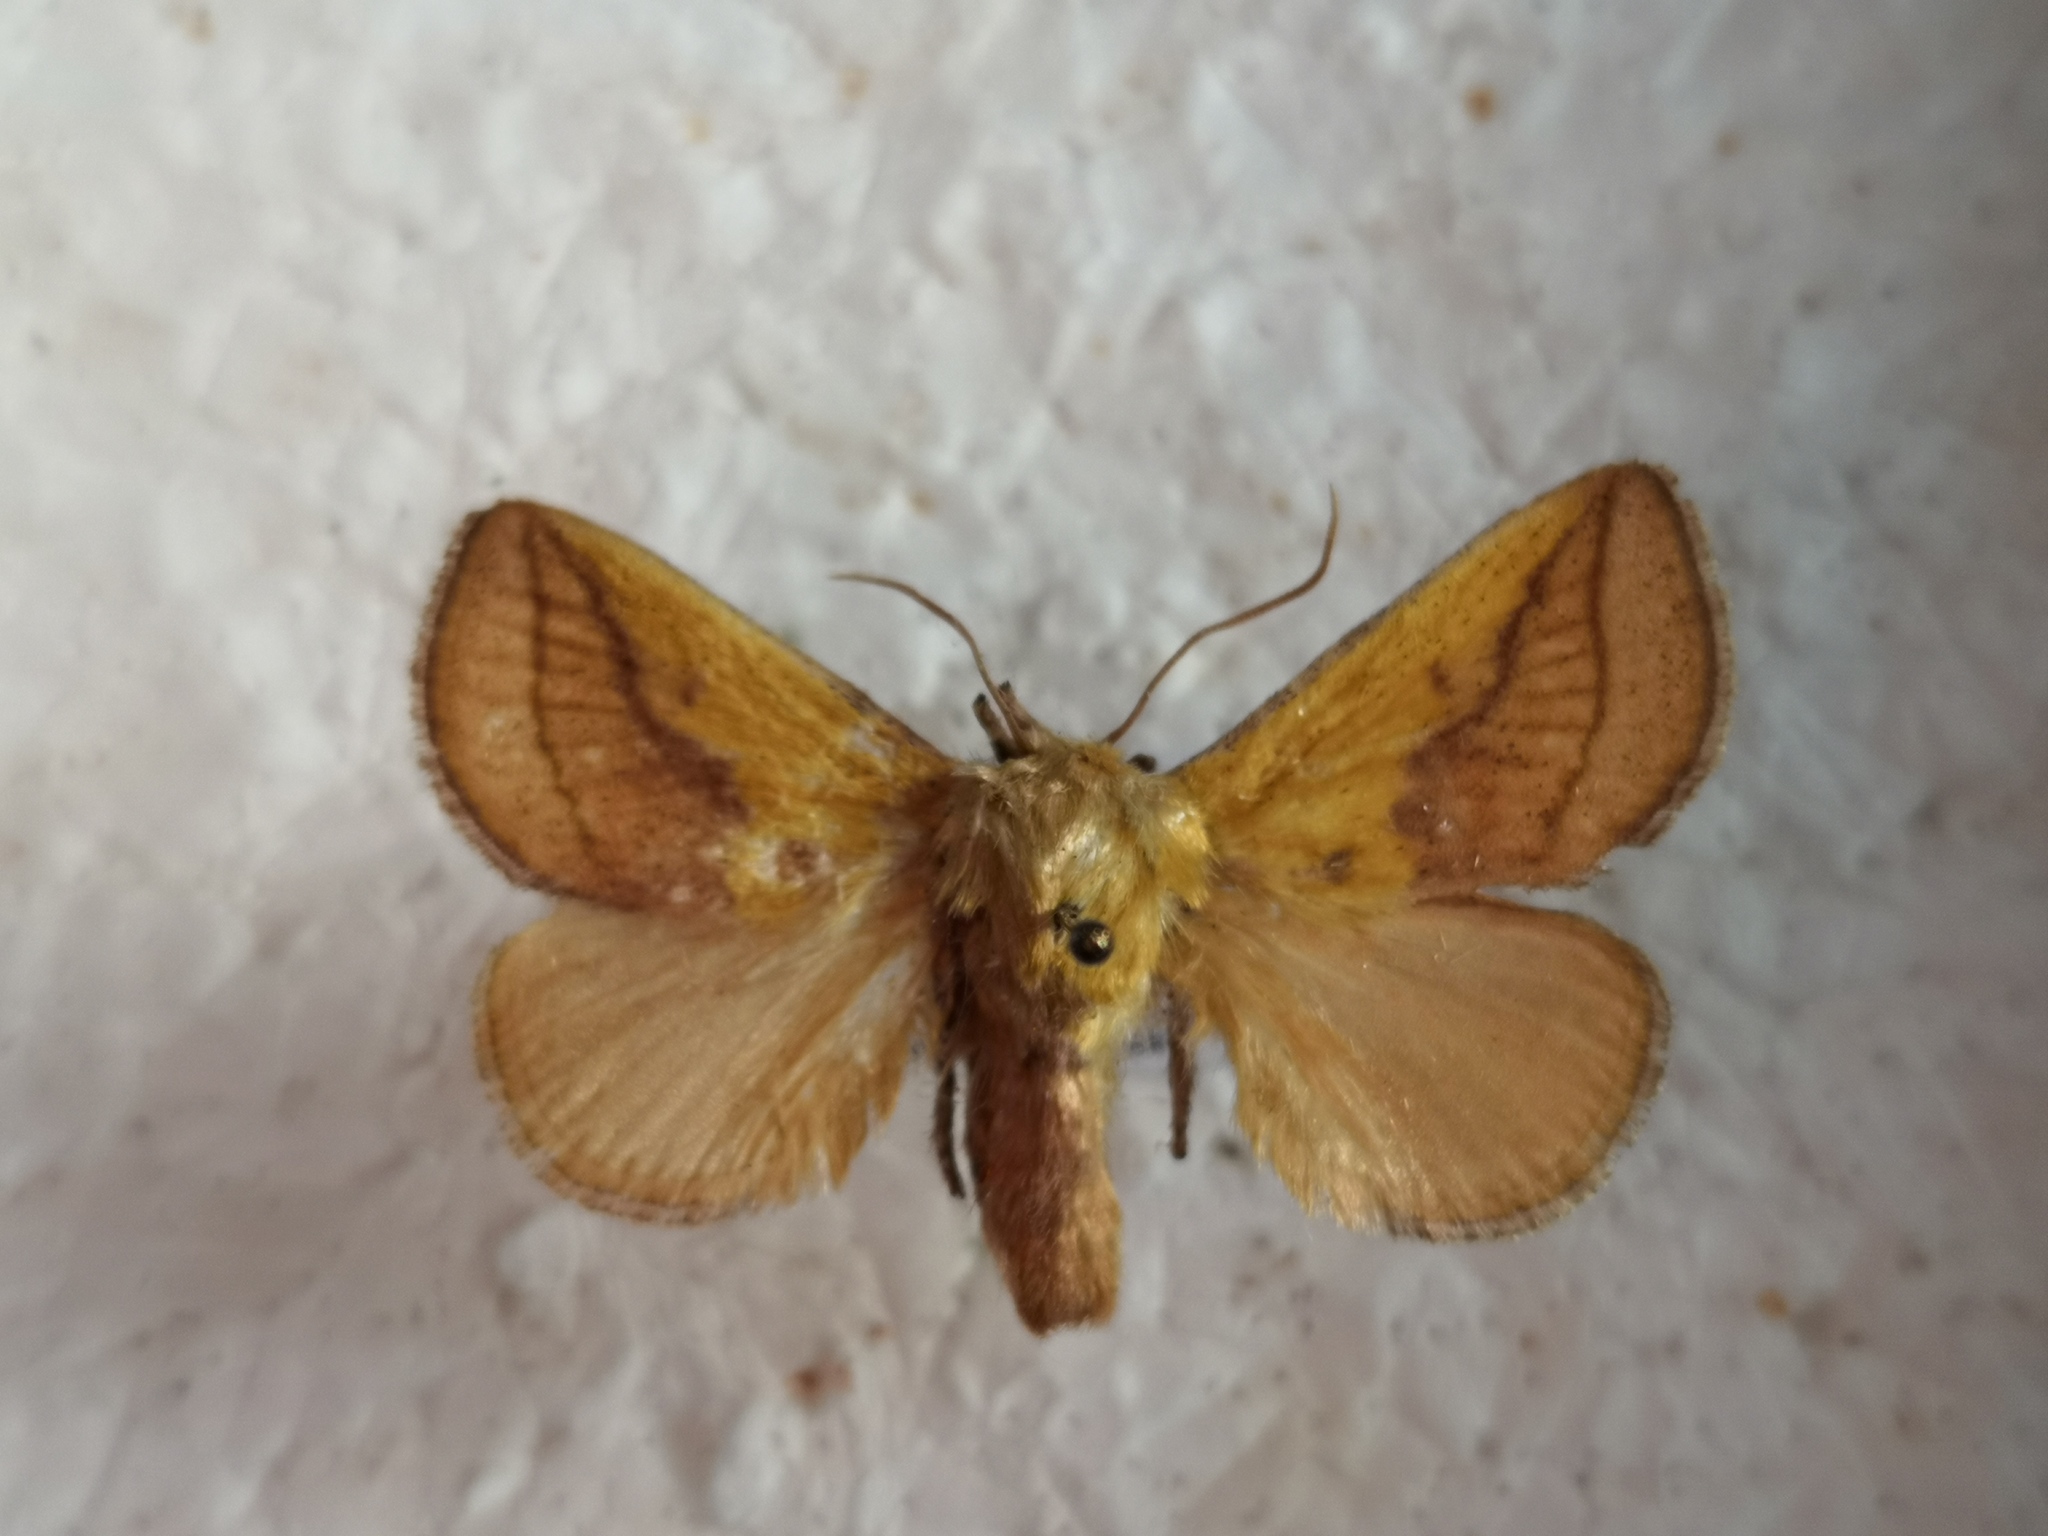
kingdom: Animalia
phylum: Arthropoda
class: Insecta
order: Lepidoptera
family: Limacodidae
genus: Monema
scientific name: Monema flavescens
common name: Oriental moth
